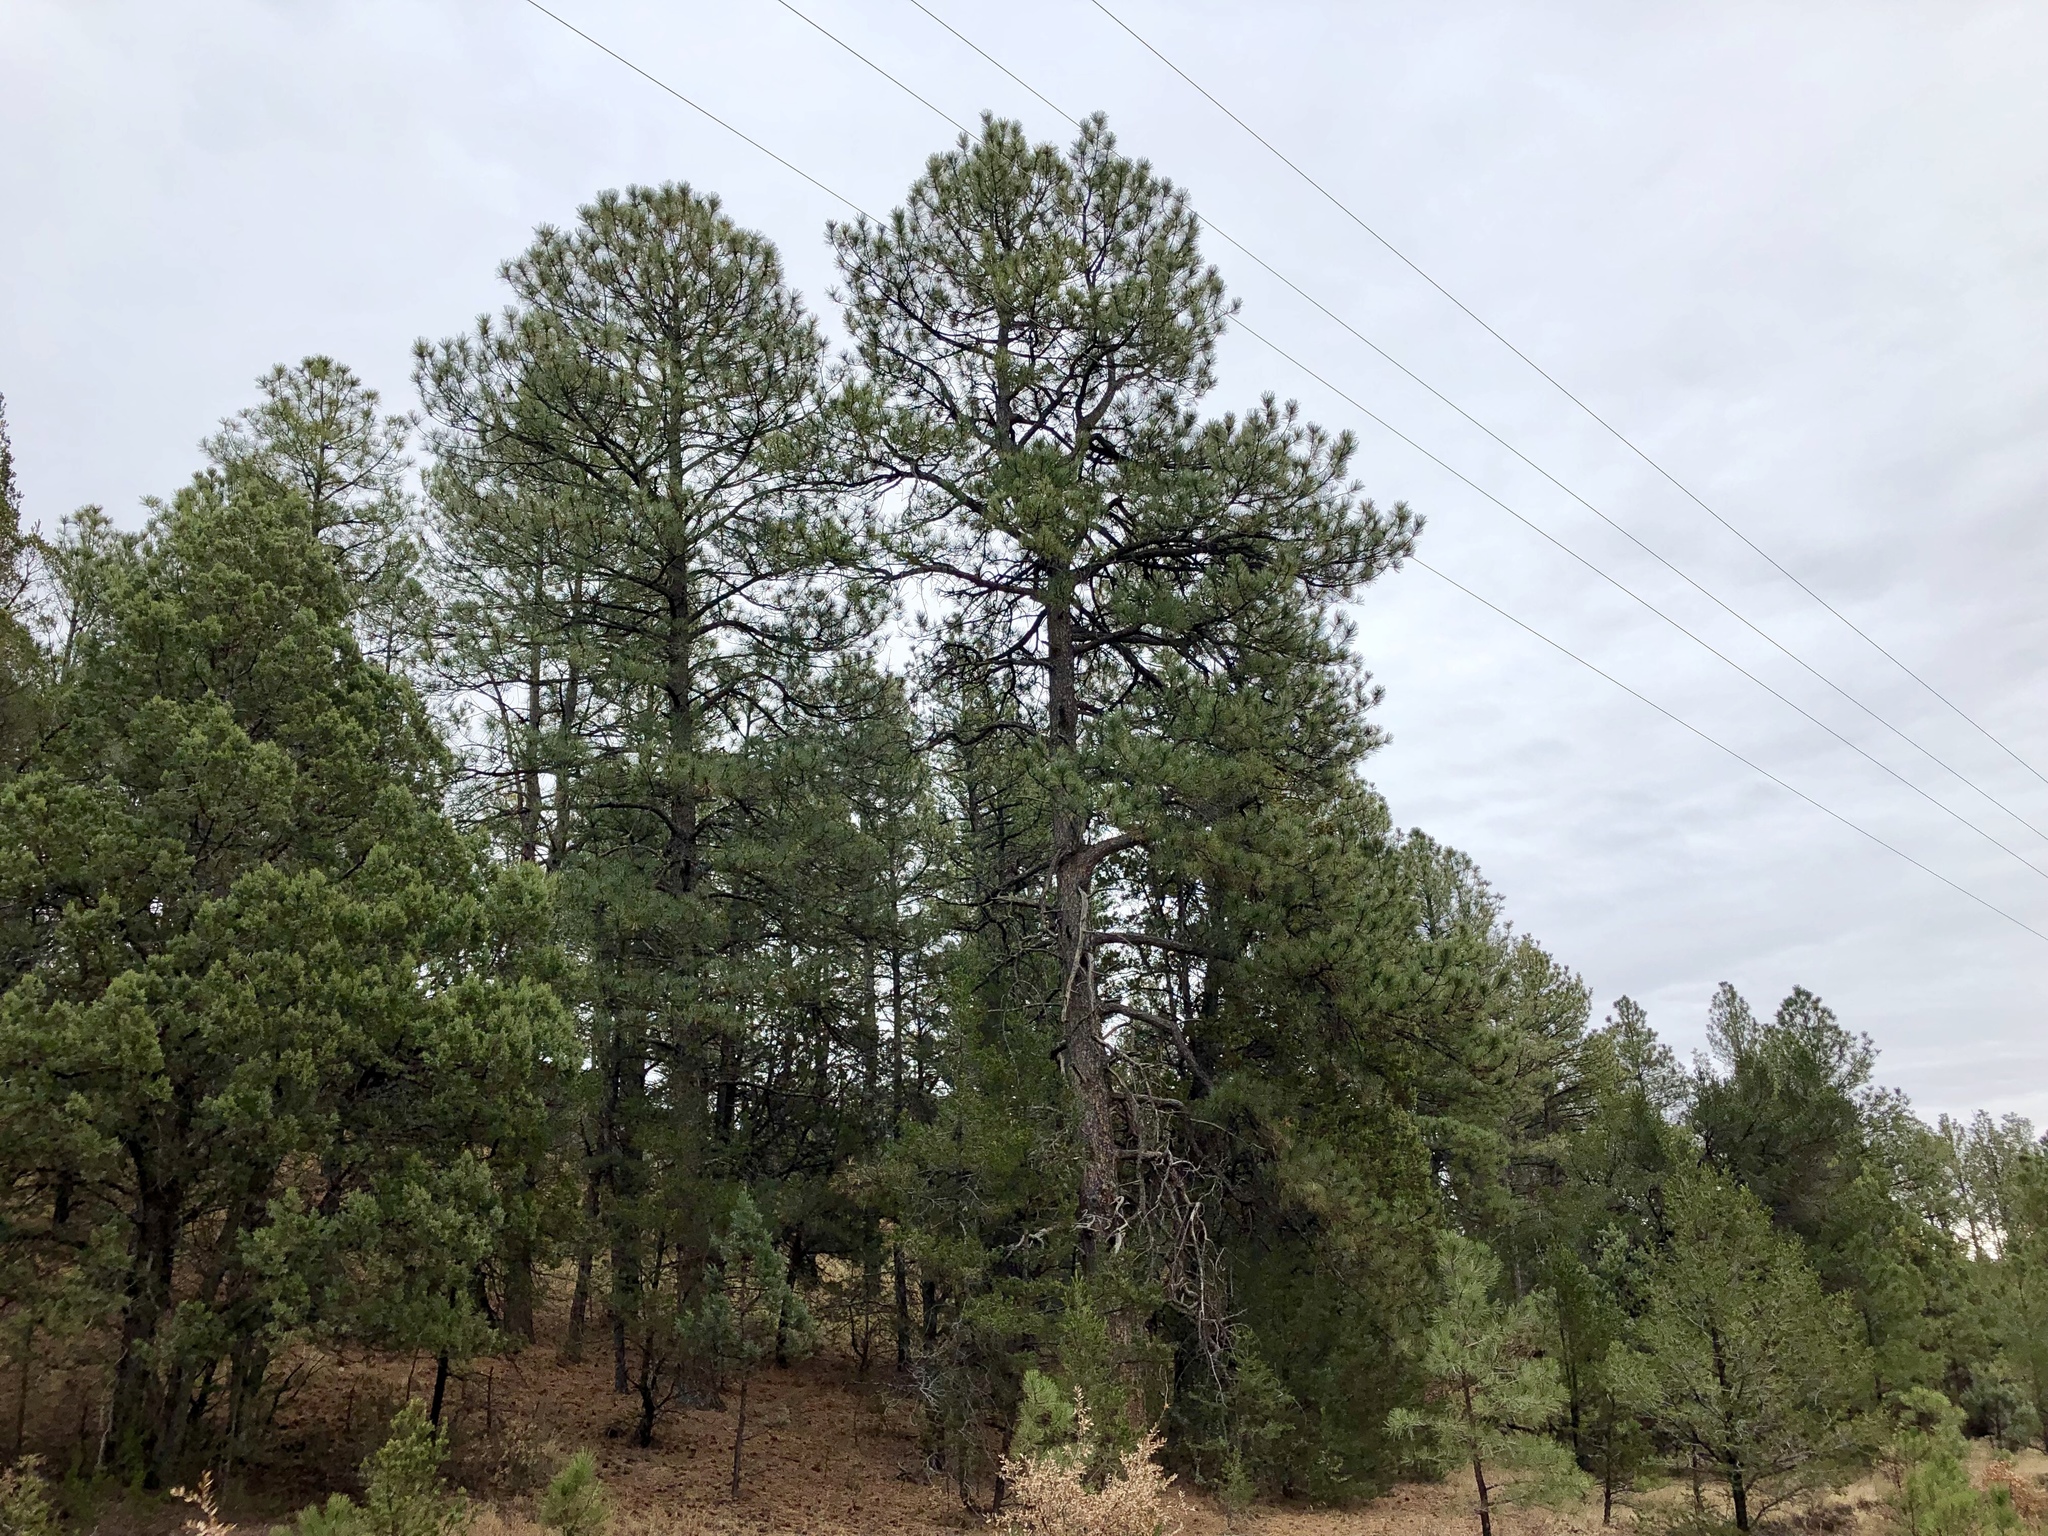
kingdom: Plantae
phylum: Tracheophyta
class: Pinopsida
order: Pinales
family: Pinaceae
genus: Pinus
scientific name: Pinus ponderosa
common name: Western yellow-pine
